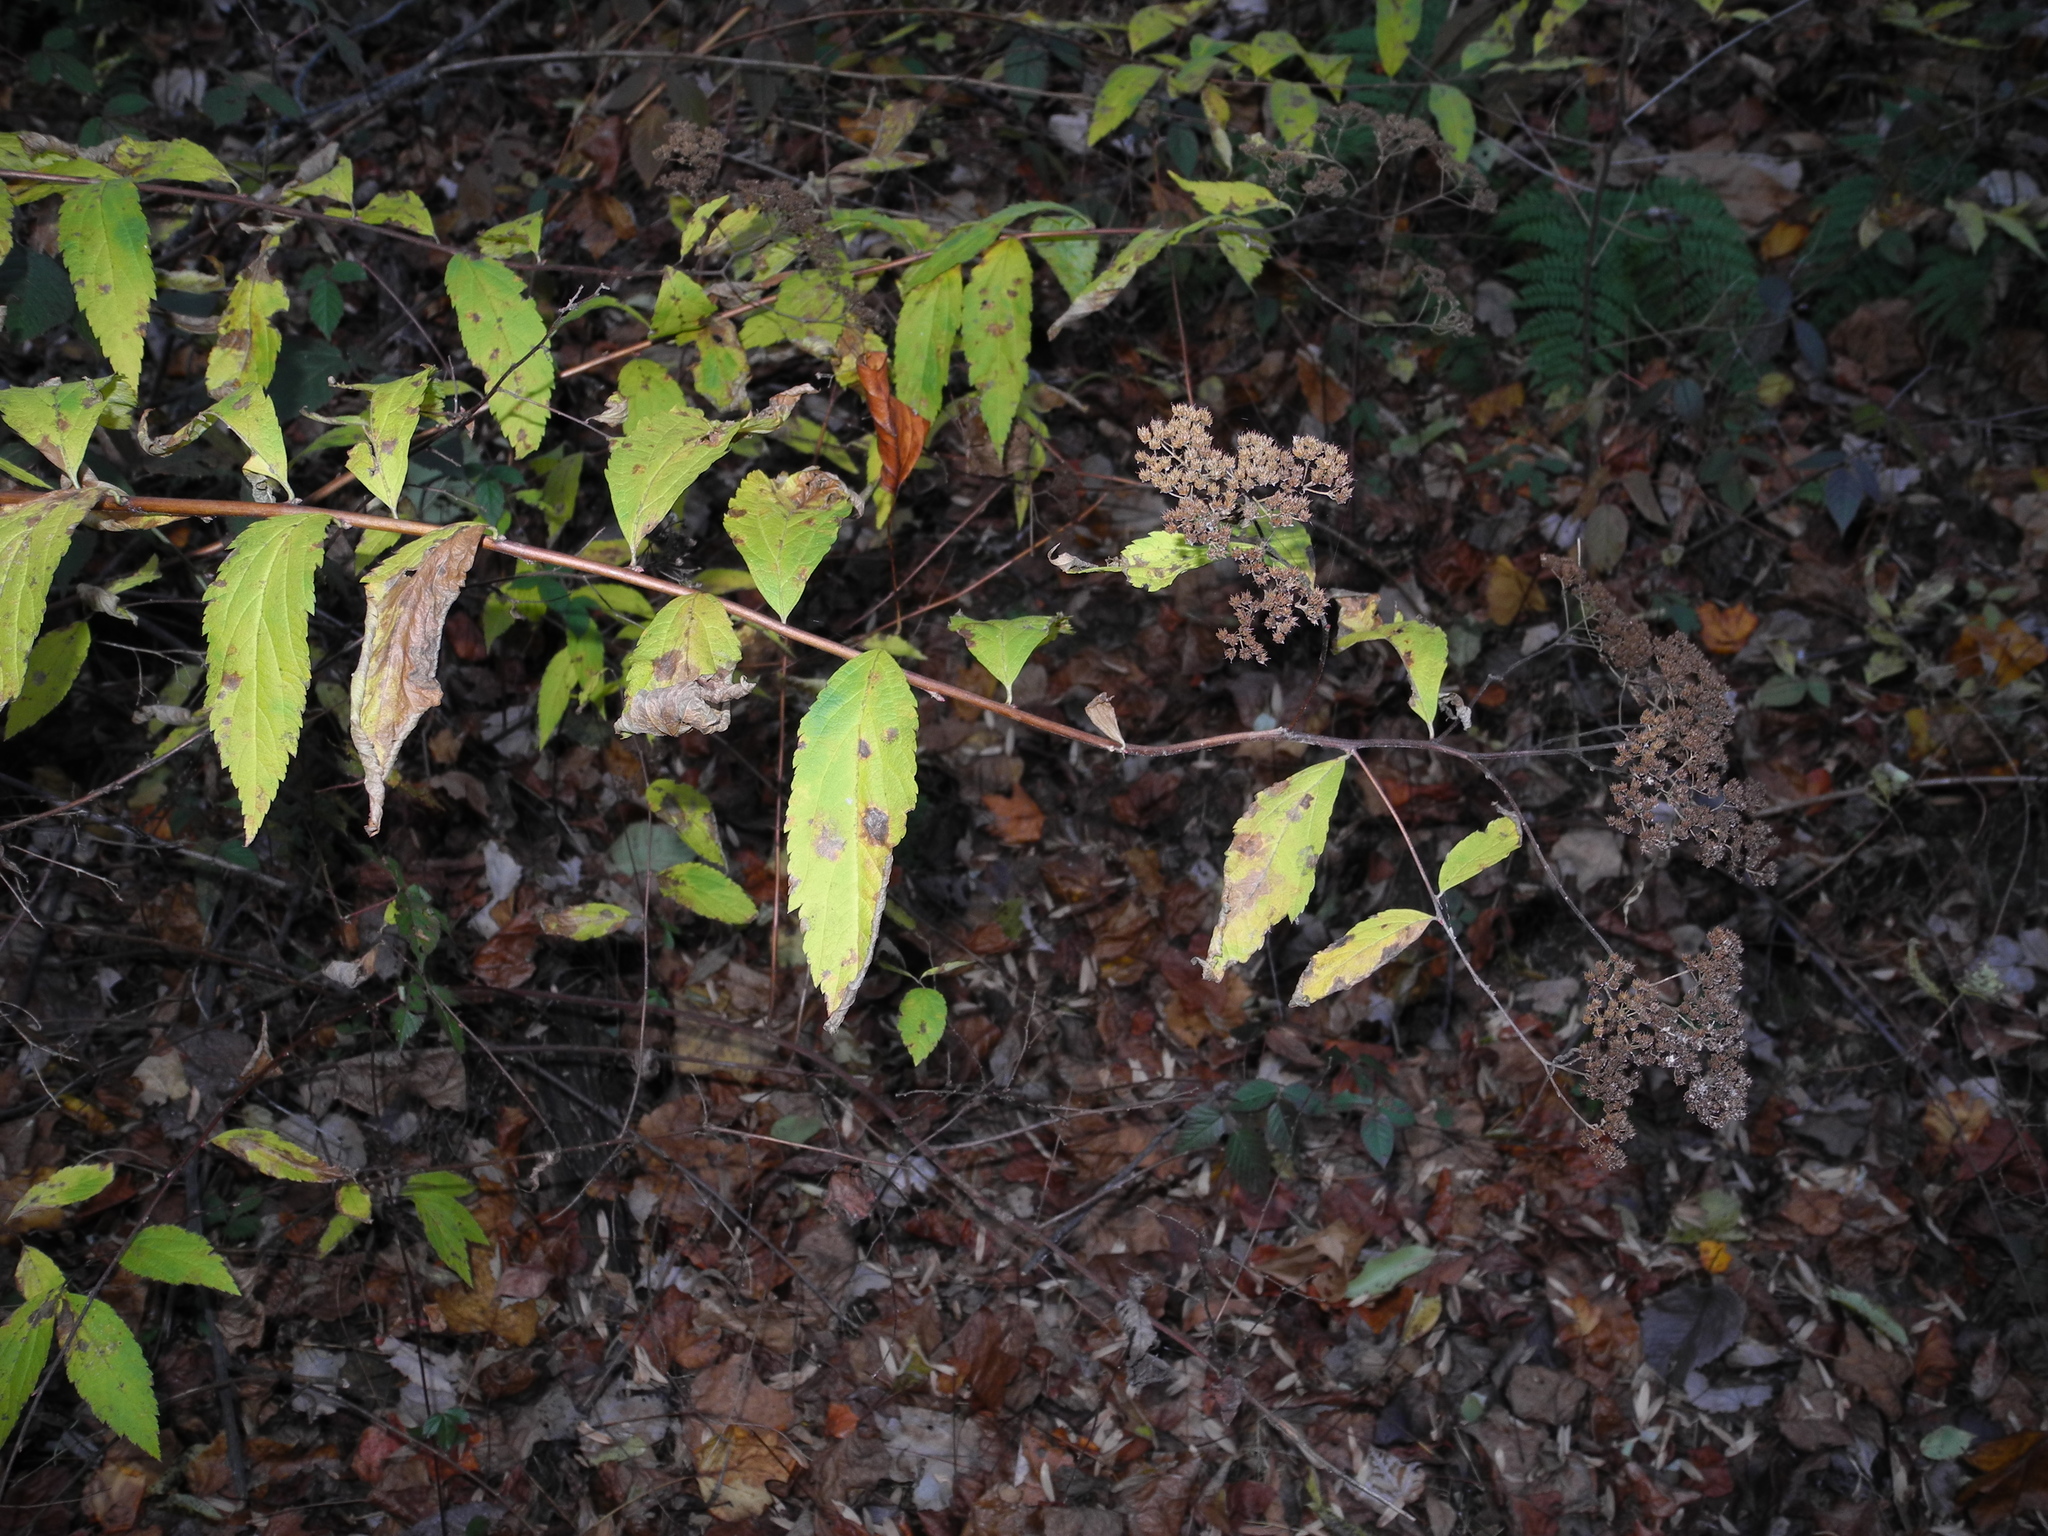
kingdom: Plantae
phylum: Tracheophyta
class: Magnoliopsida
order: Rosales
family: Rosaceae
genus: Spiraea
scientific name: Spiraea japonica
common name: Japanese spiraea
